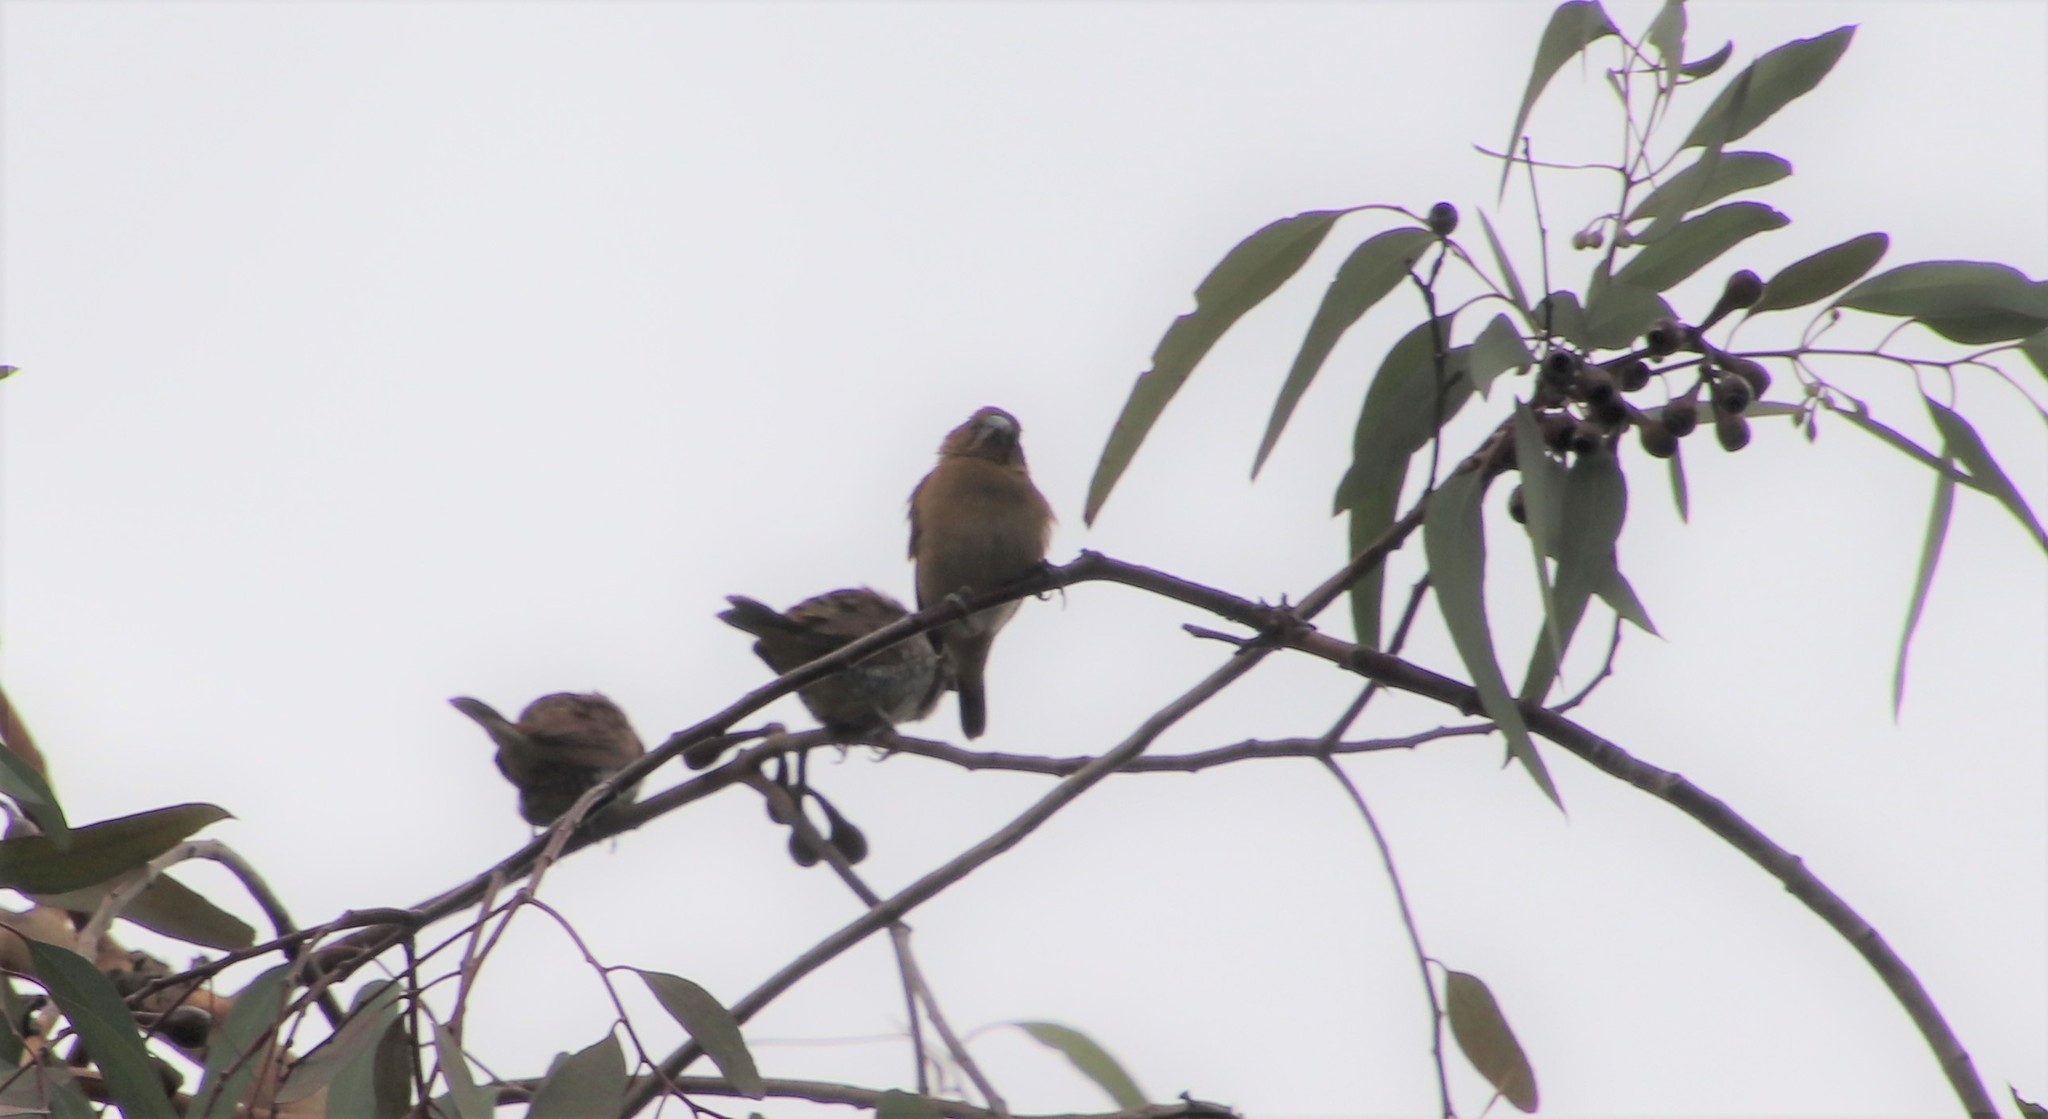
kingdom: Animalia
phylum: Chordata
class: Aves
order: Passeriformes
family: Estrildidae
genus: Lonchura
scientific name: Lonchura punctulata
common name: Scaly-breasted munia
